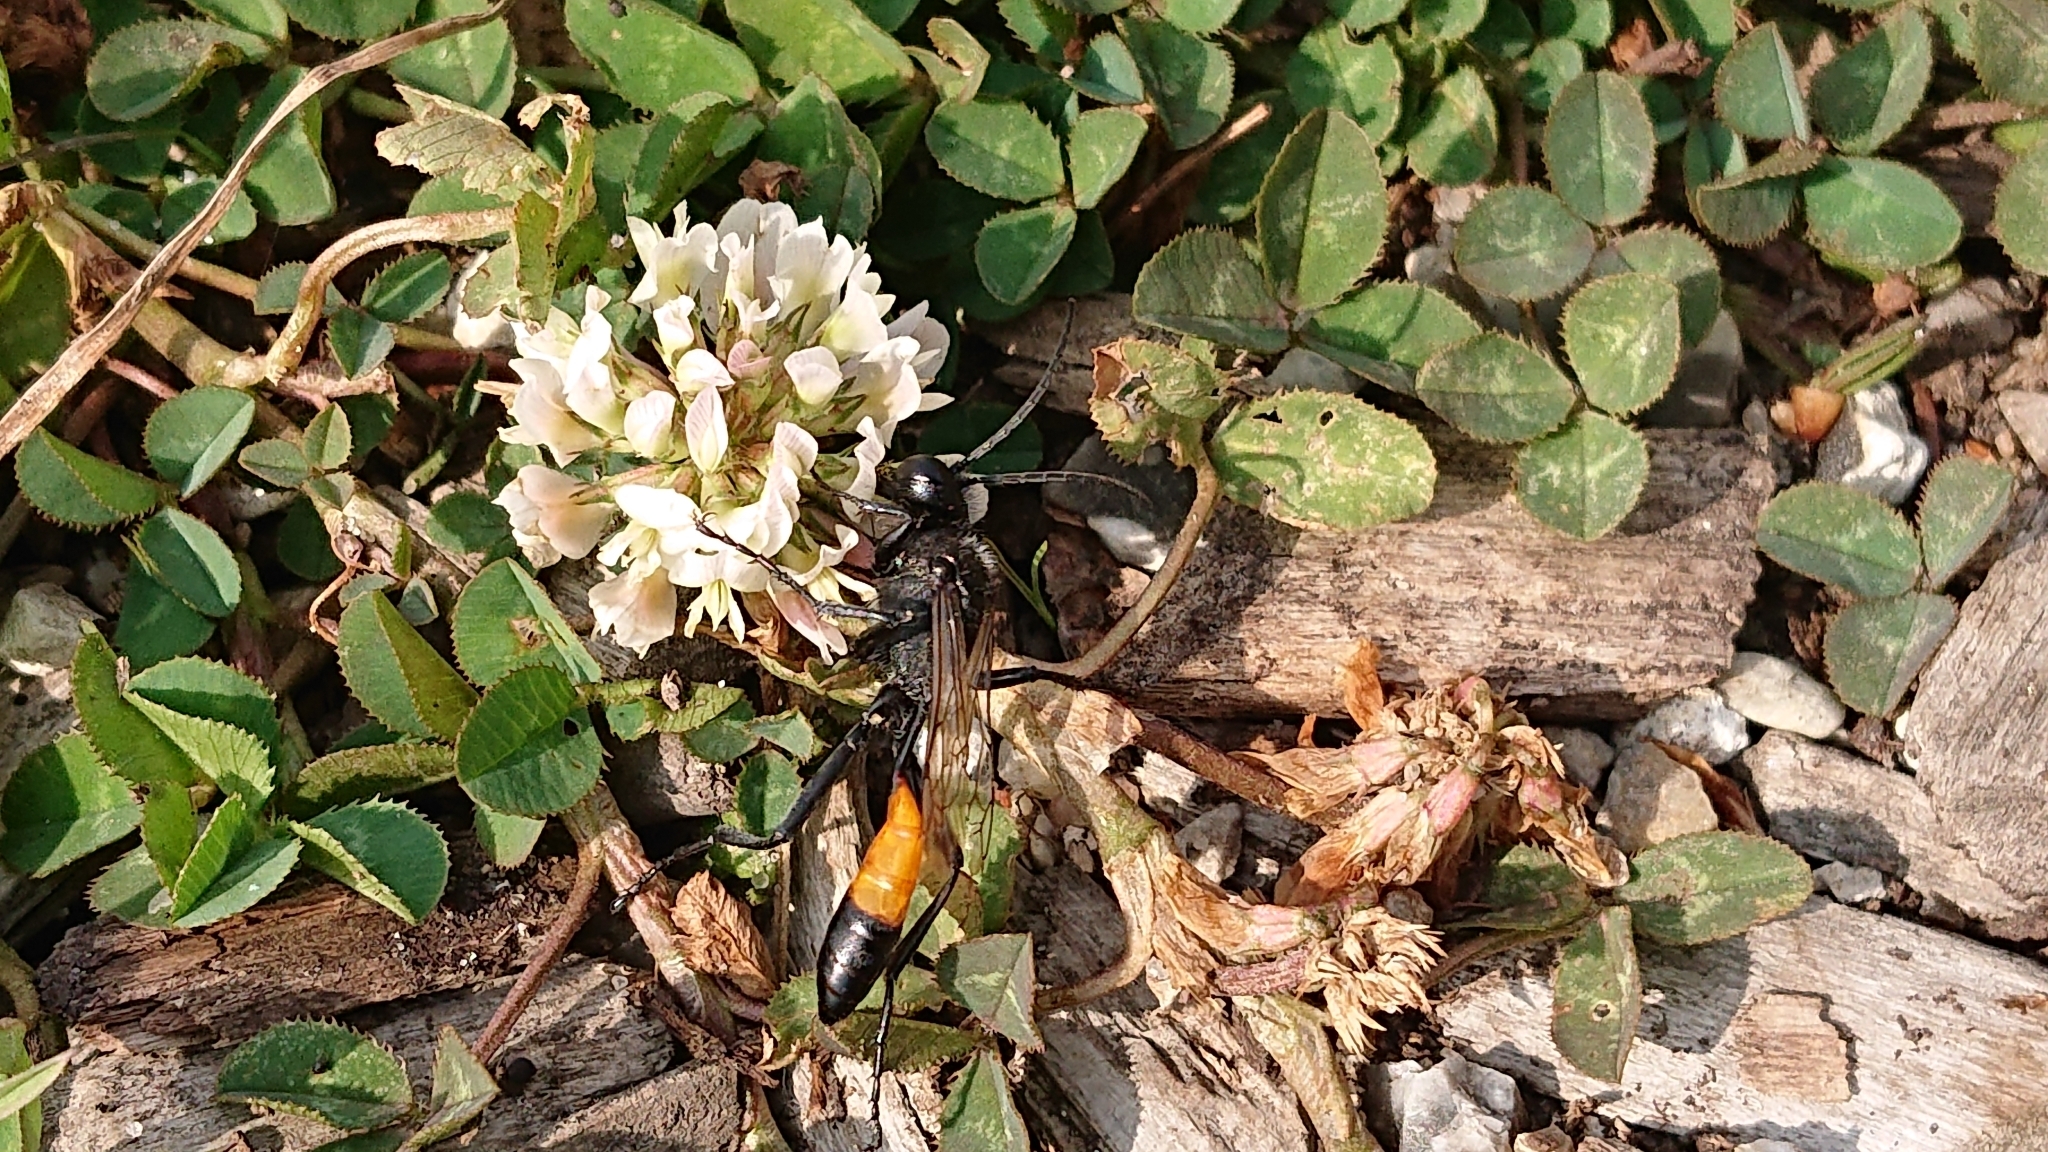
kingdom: Animalia
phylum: Arthropoda
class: Insecta
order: Hymenoptera
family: Sphecidae
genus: Ammophila
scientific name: Ammophila sabulosa
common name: Red banded sand wasp
